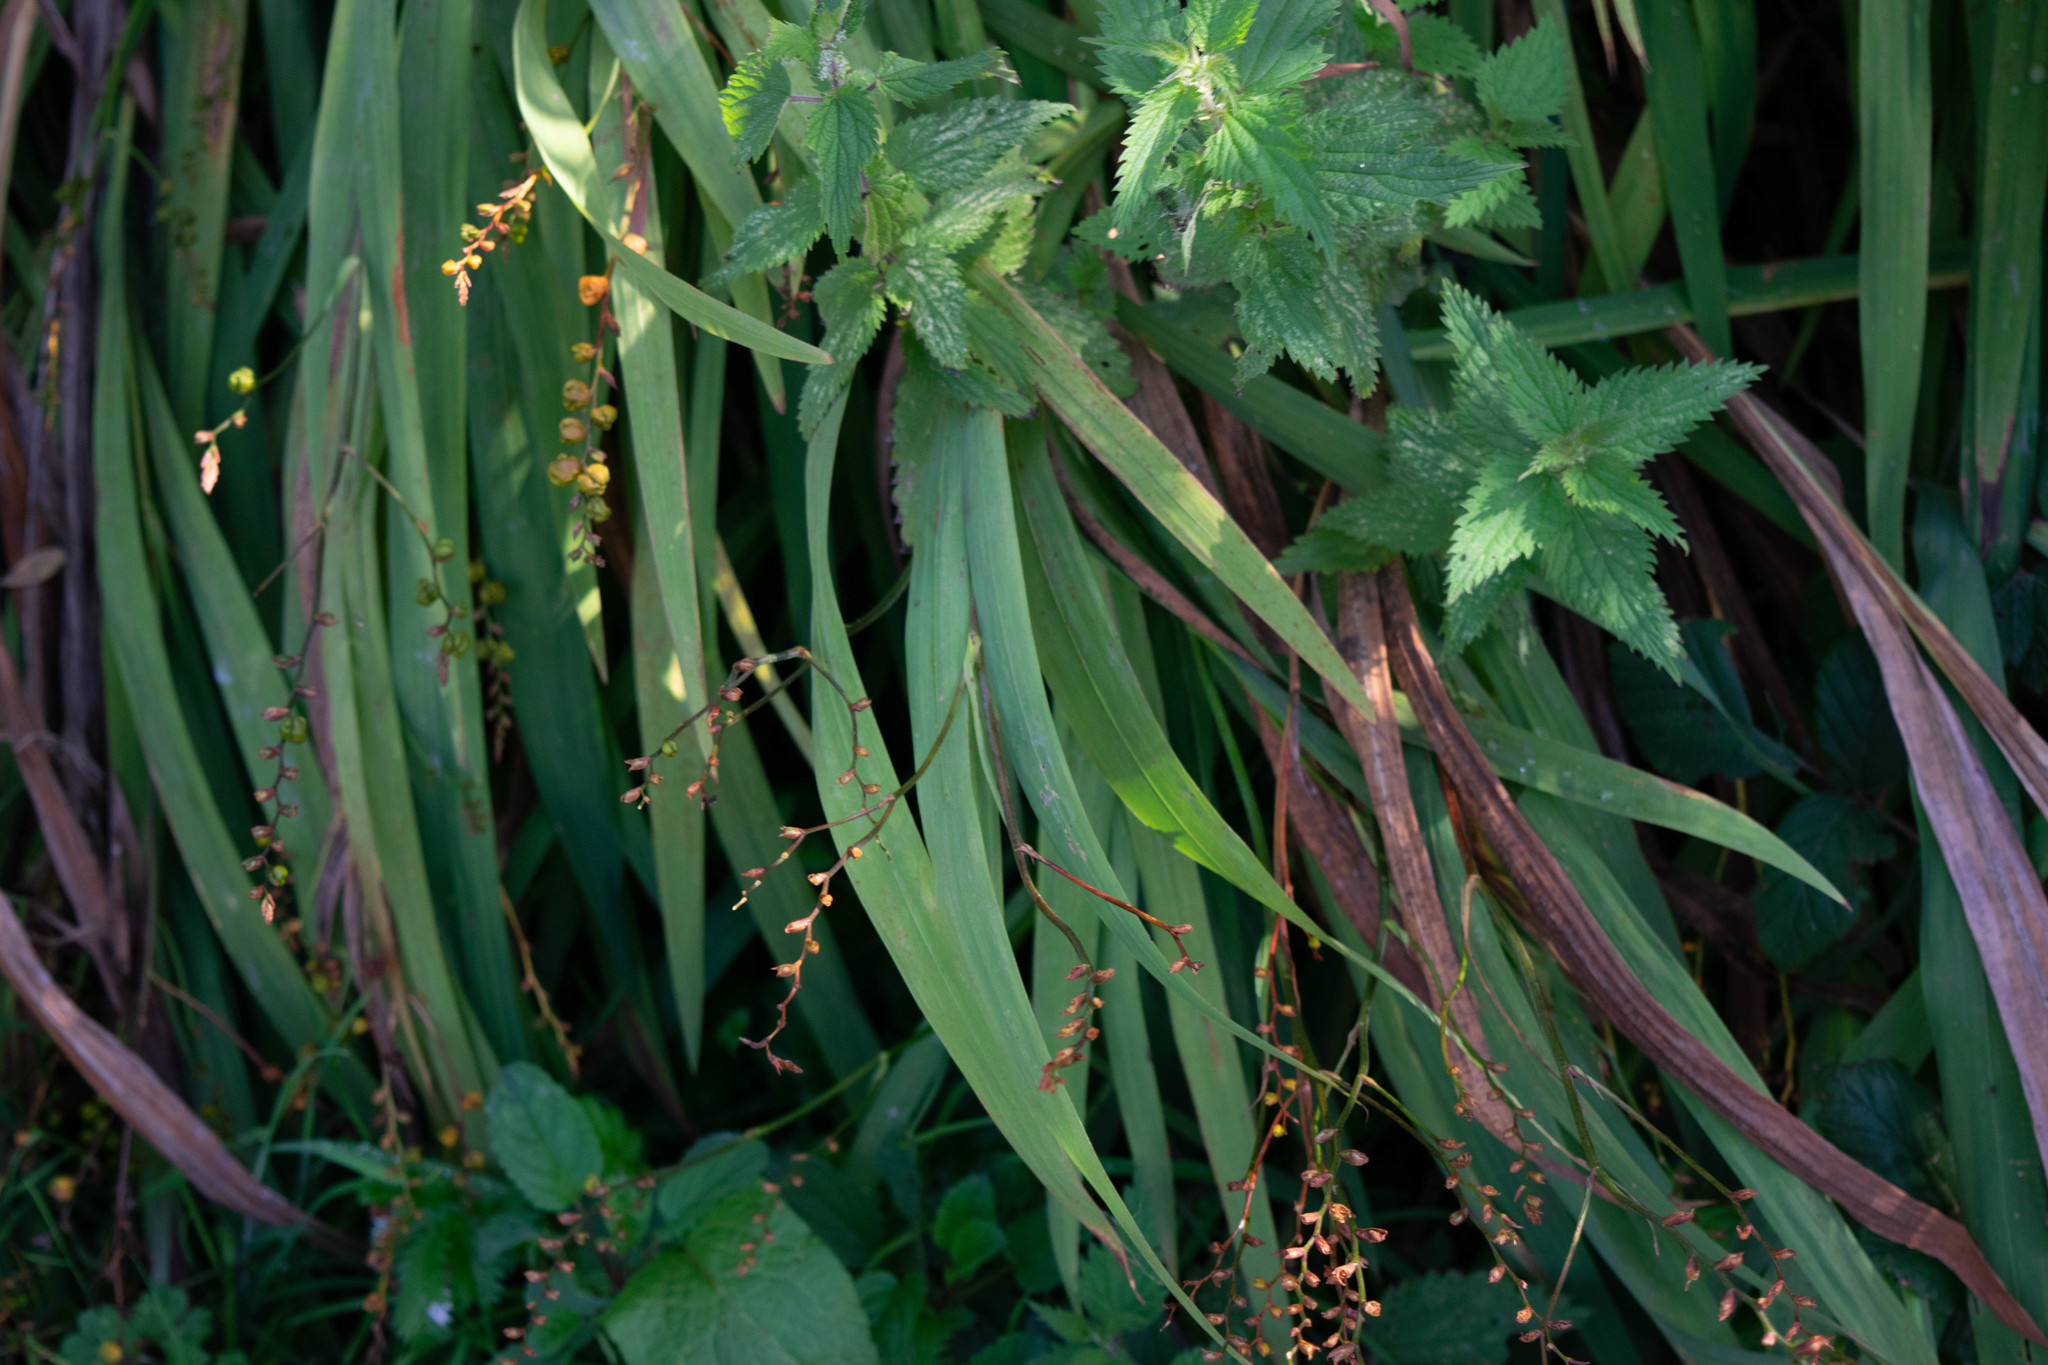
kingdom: Plantae
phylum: Tracheophyta
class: Liliopsida
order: Asparagales
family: Iridaceae
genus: Crocosmia
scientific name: Crocosmia crocosmiiflora
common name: Montbretia
